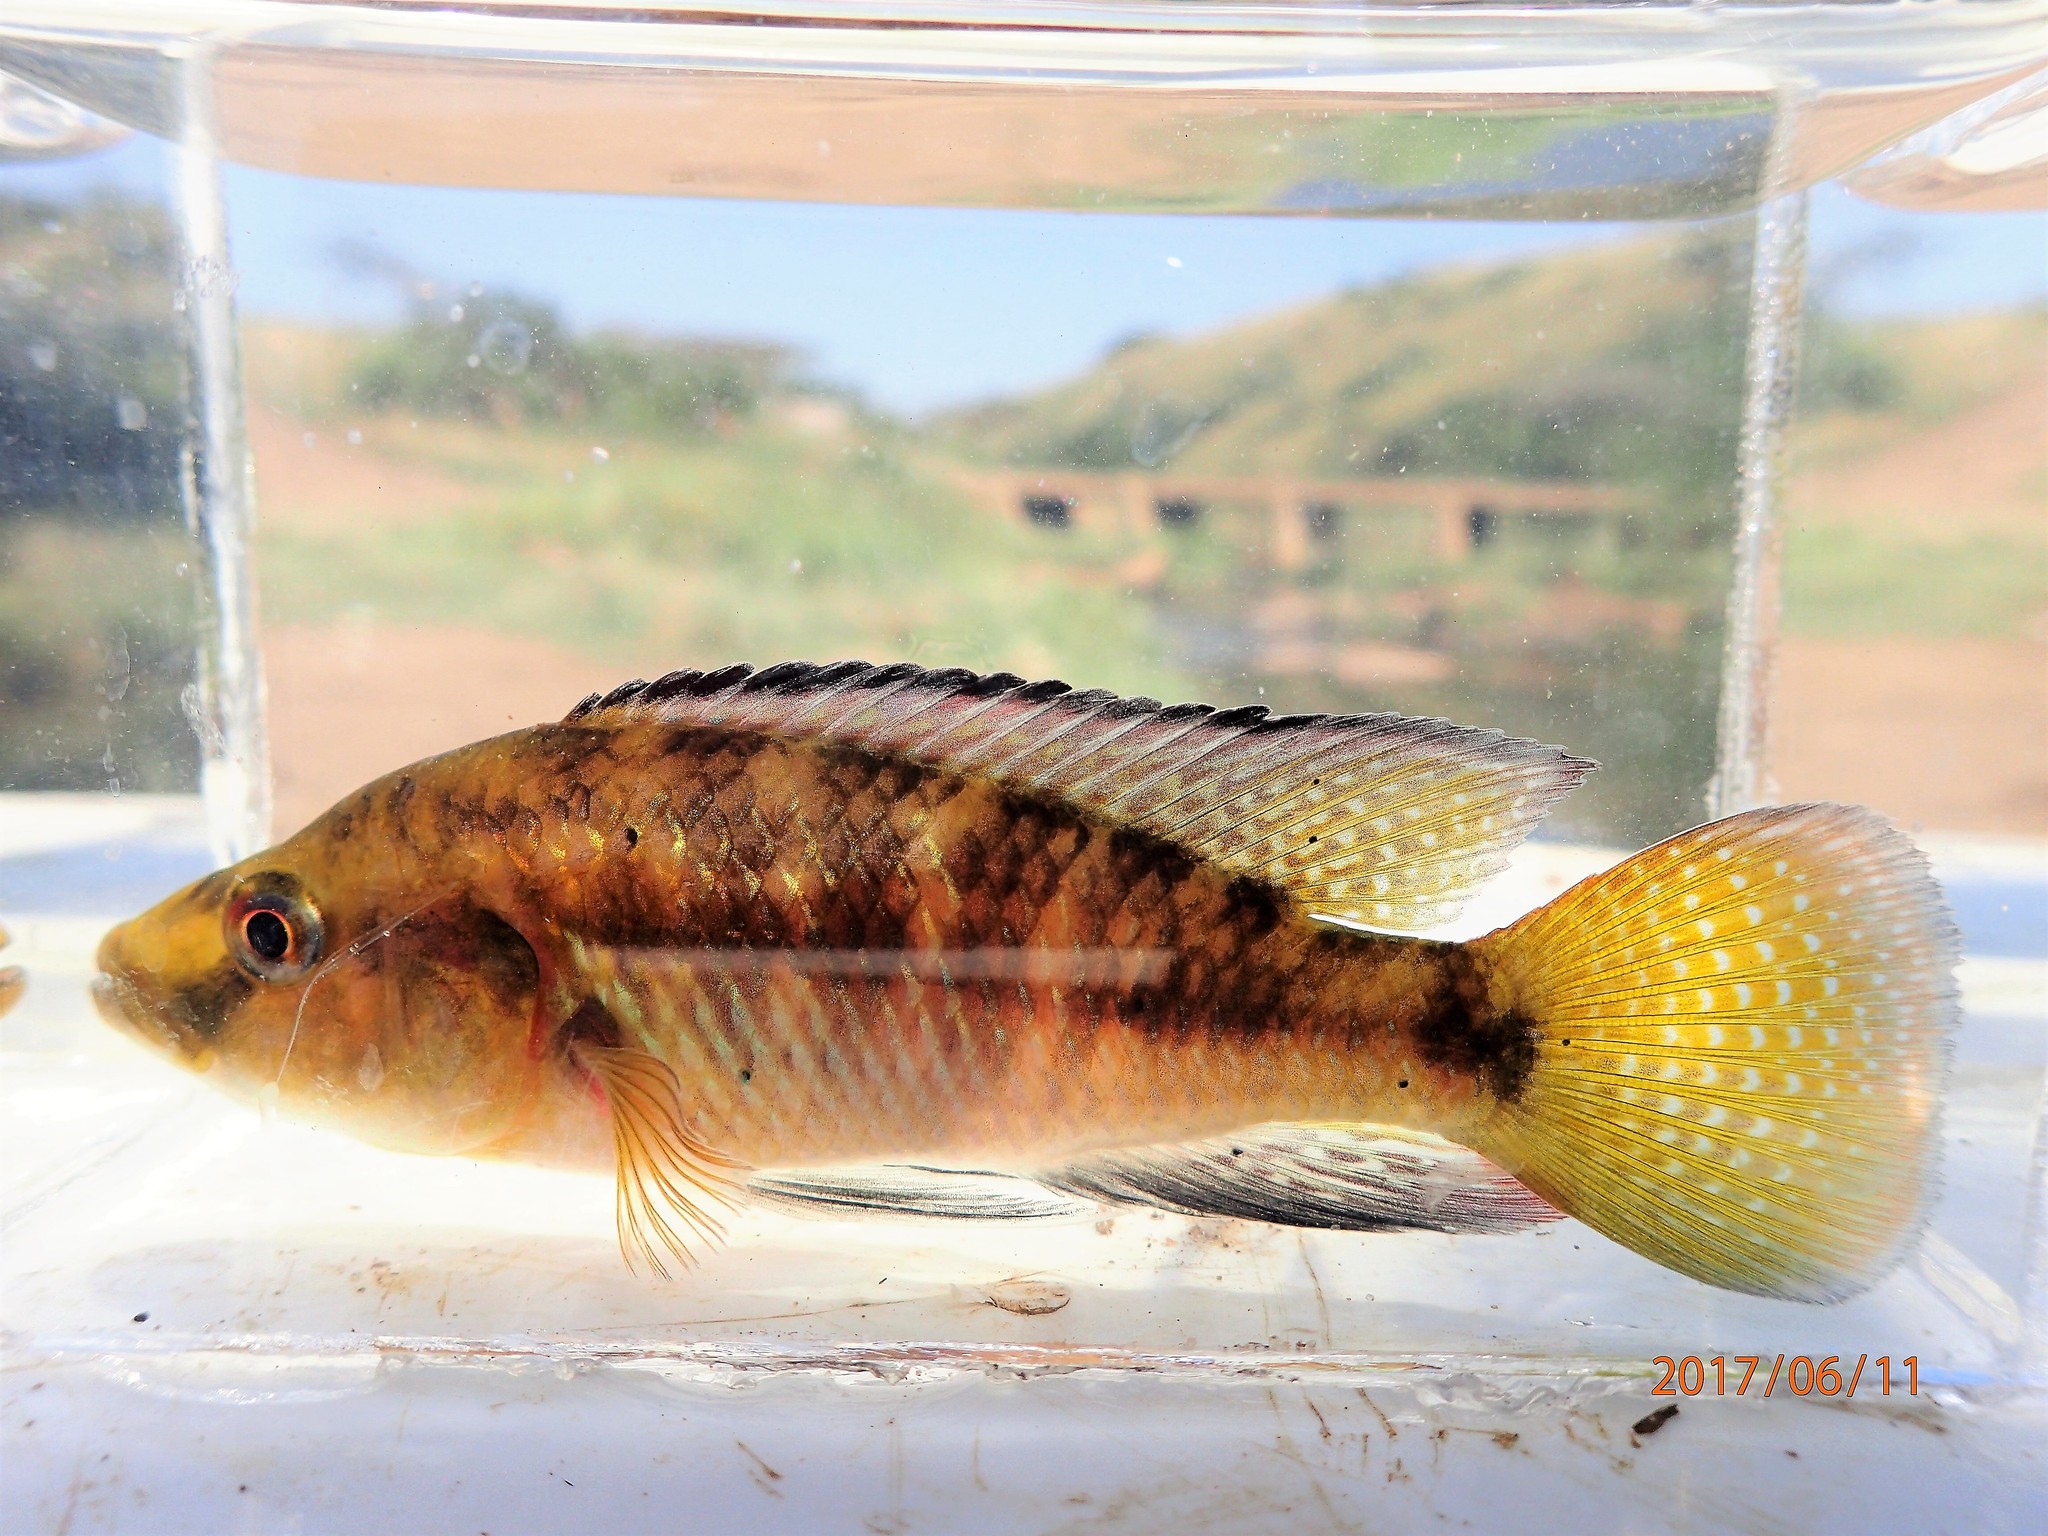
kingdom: Animalia
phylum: Chordata
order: Perciformes
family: Cichlidae
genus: Pseudocrenilabrus
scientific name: Pseudocrenilabrus philander
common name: Southern mouthbrooder
